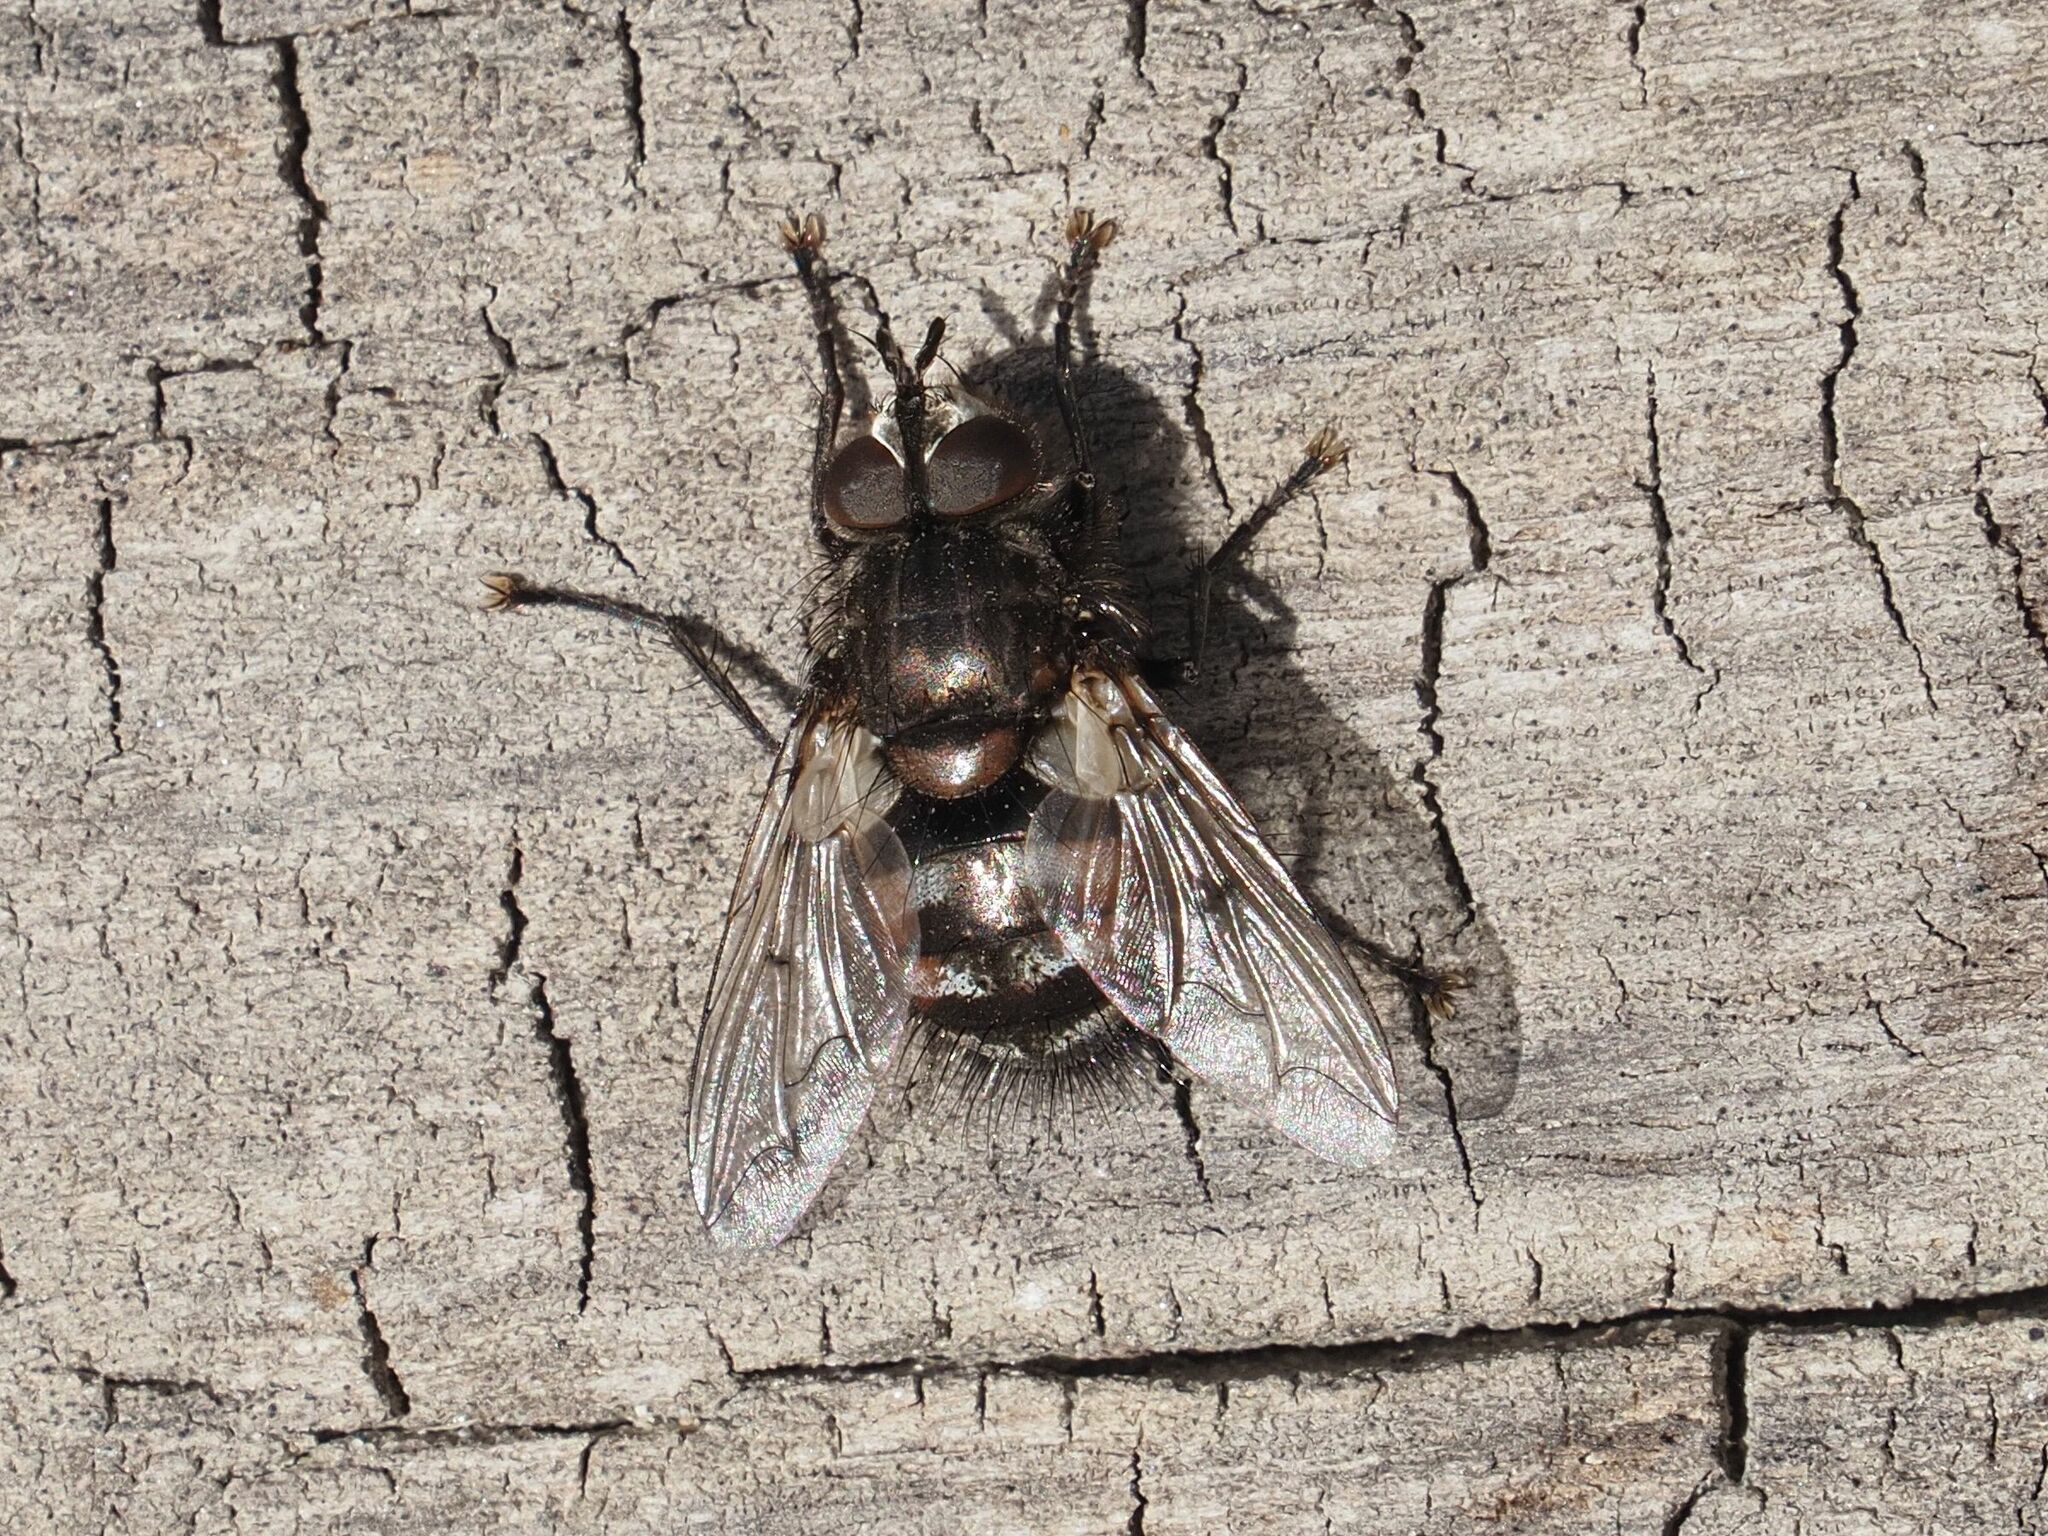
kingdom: Animalia
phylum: Arthropoda
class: Insecta
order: Diptera
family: Tachinidae
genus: Panzeria
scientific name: Panzeria puparum
